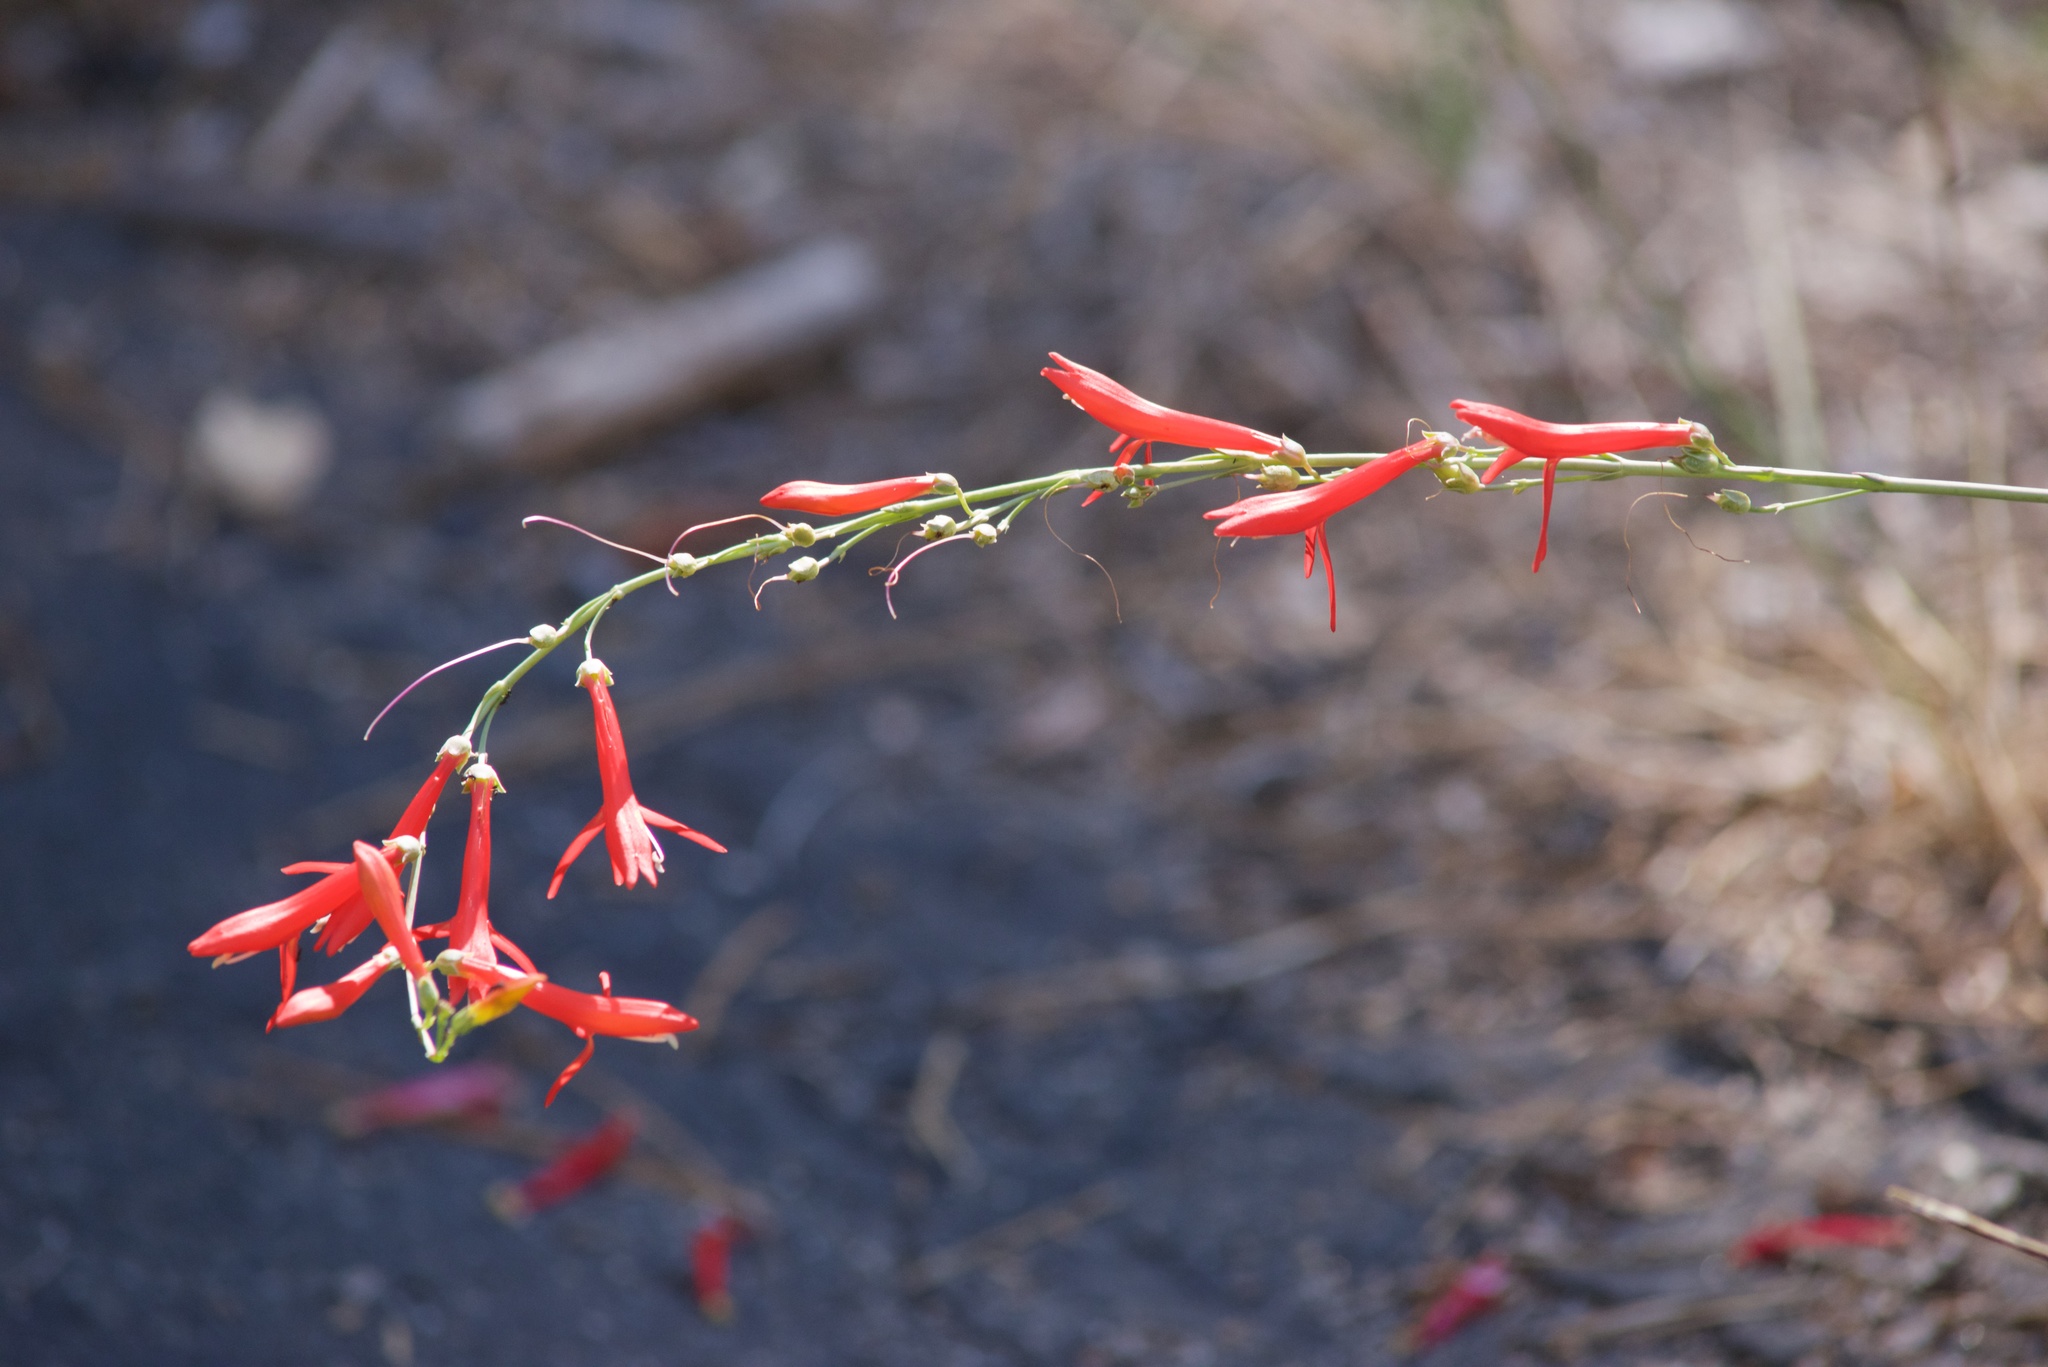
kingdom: Plantae
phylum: Tracheophyta
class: Magnoliopsida
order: Lamiales
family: Plantaginaceae
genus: Penstemon
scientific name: Penstemon labrosus
